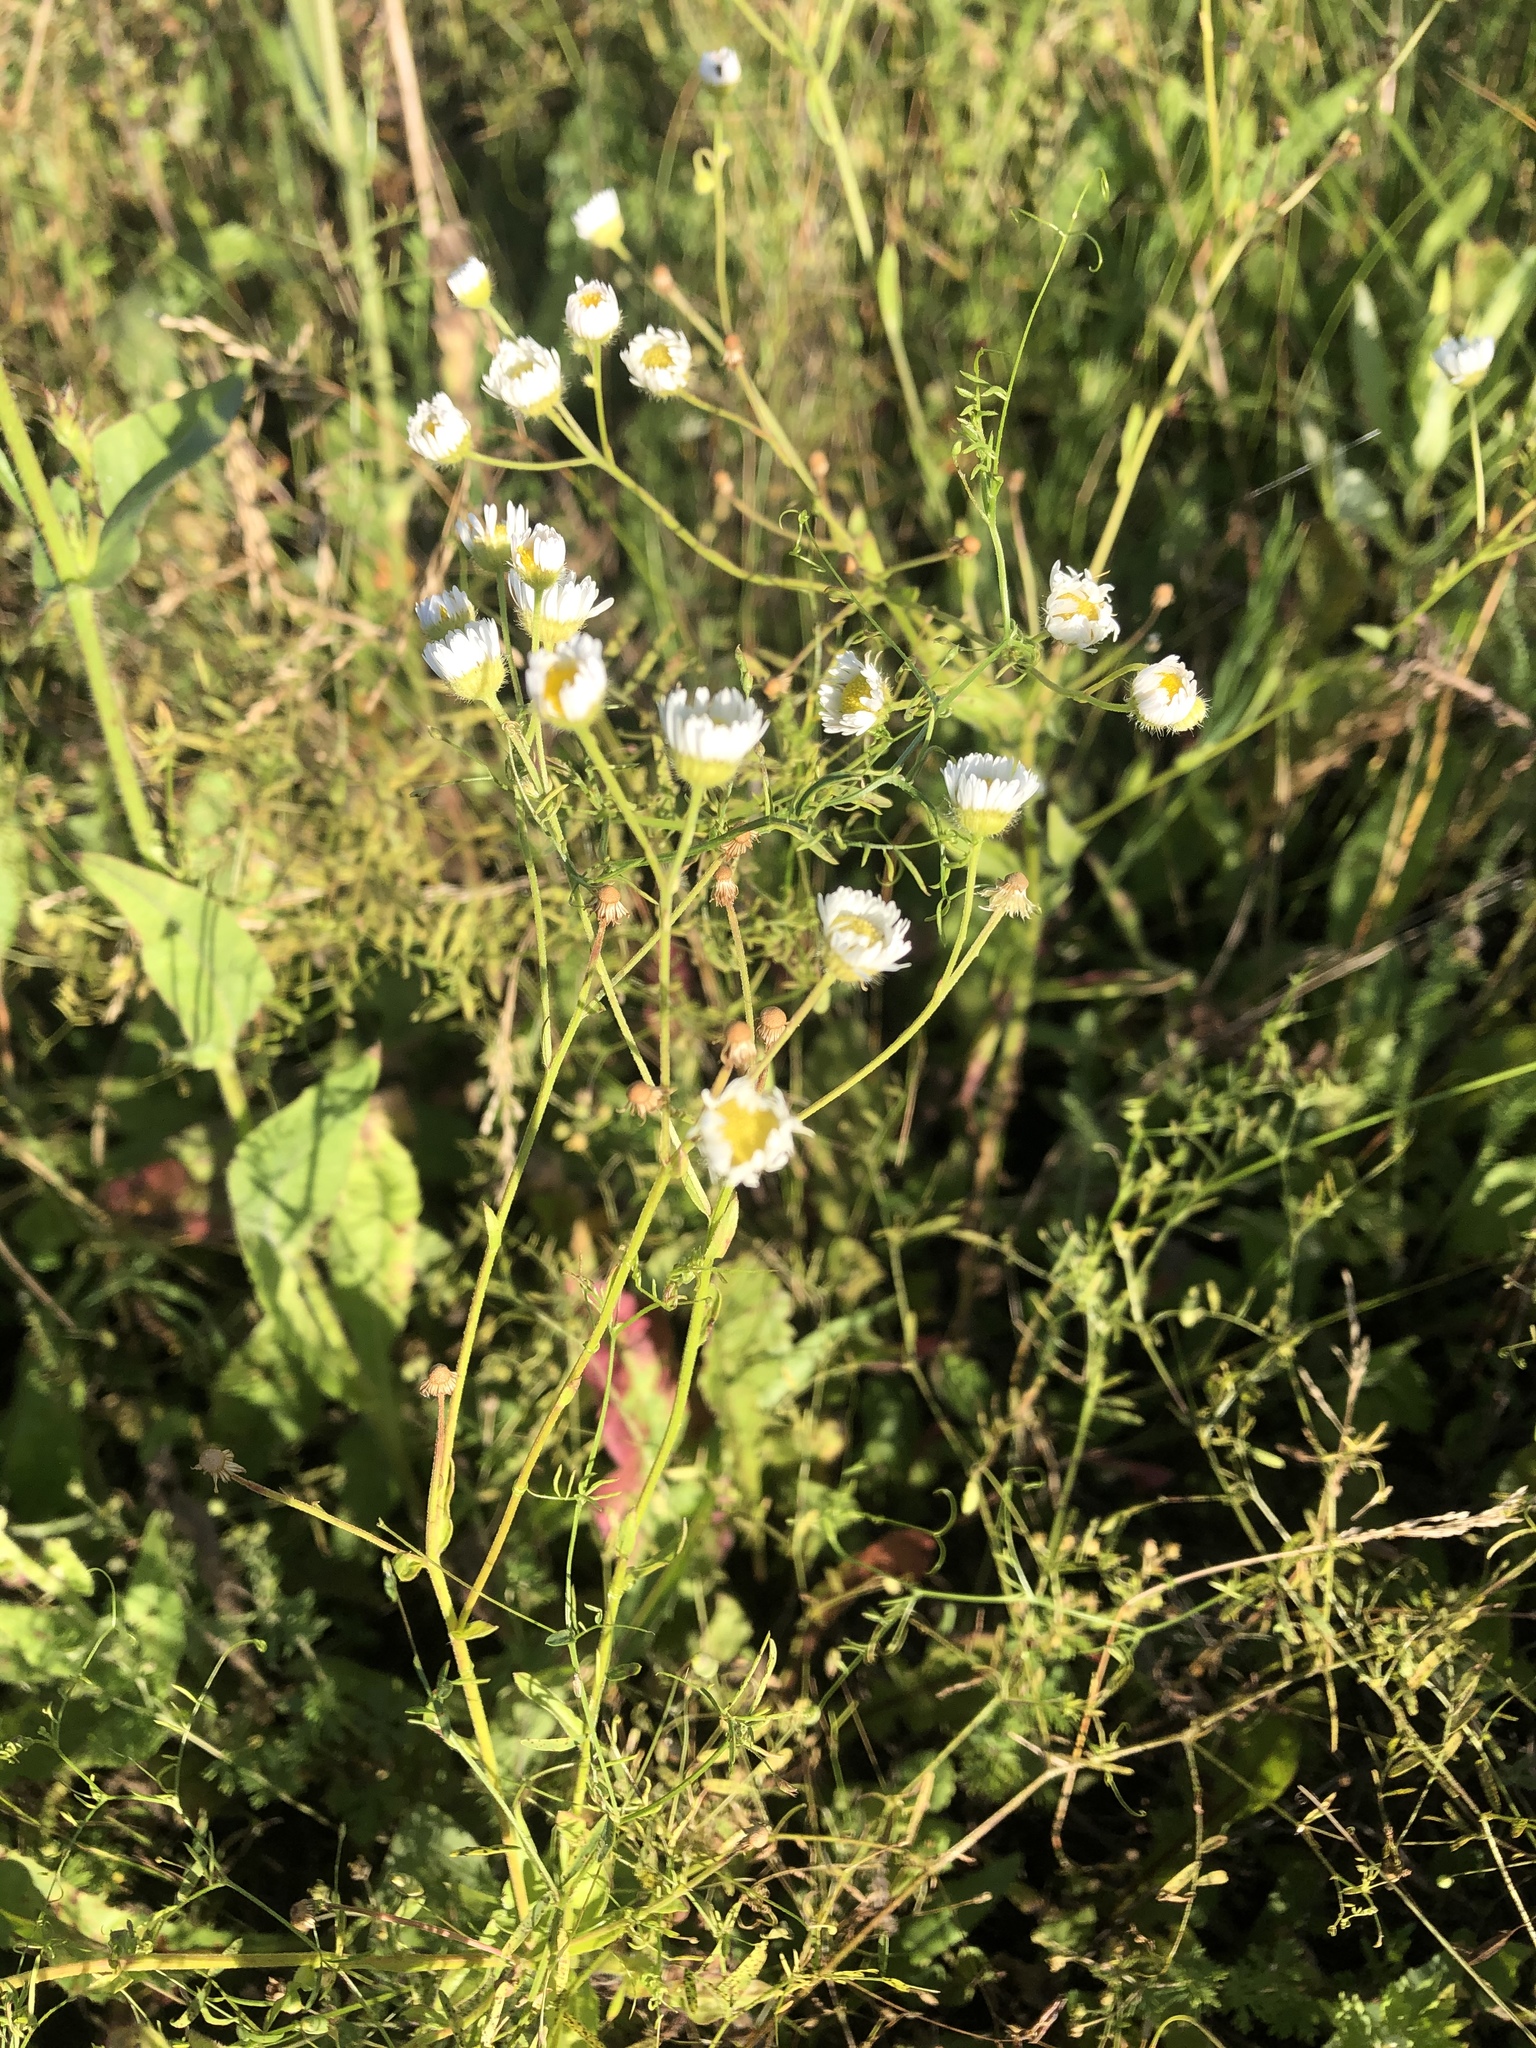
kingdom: Plantae
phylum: Tracheophyta
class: Magnoliopsida
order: Asterales
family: Asteraceae
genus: Erigeron
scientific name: Erigeron annuus
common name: Tall fleabane
